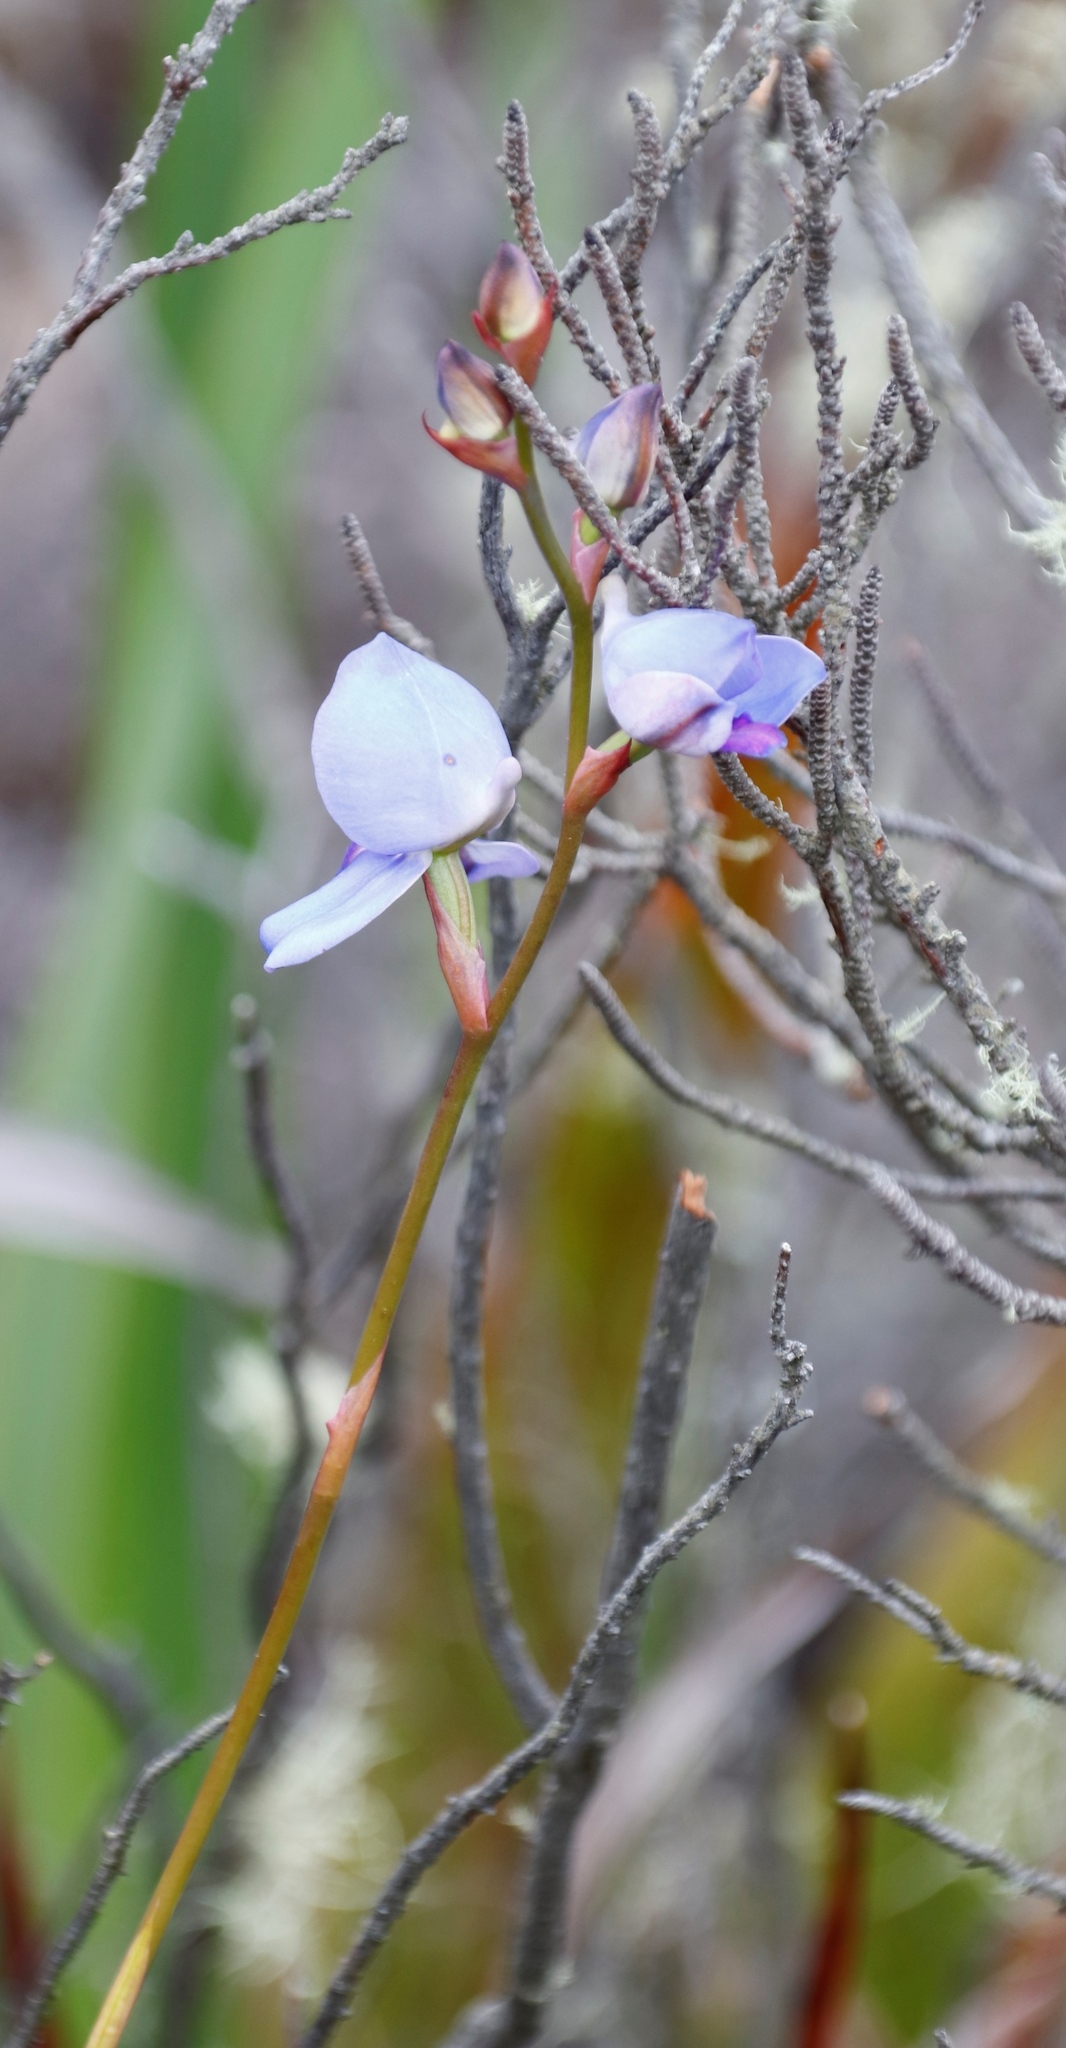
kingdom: Plantae
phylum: Tracheophyta
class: Liliopsida
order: Asparagales
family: Orchidaceae
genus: Disa
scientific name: Disa graminifolia
